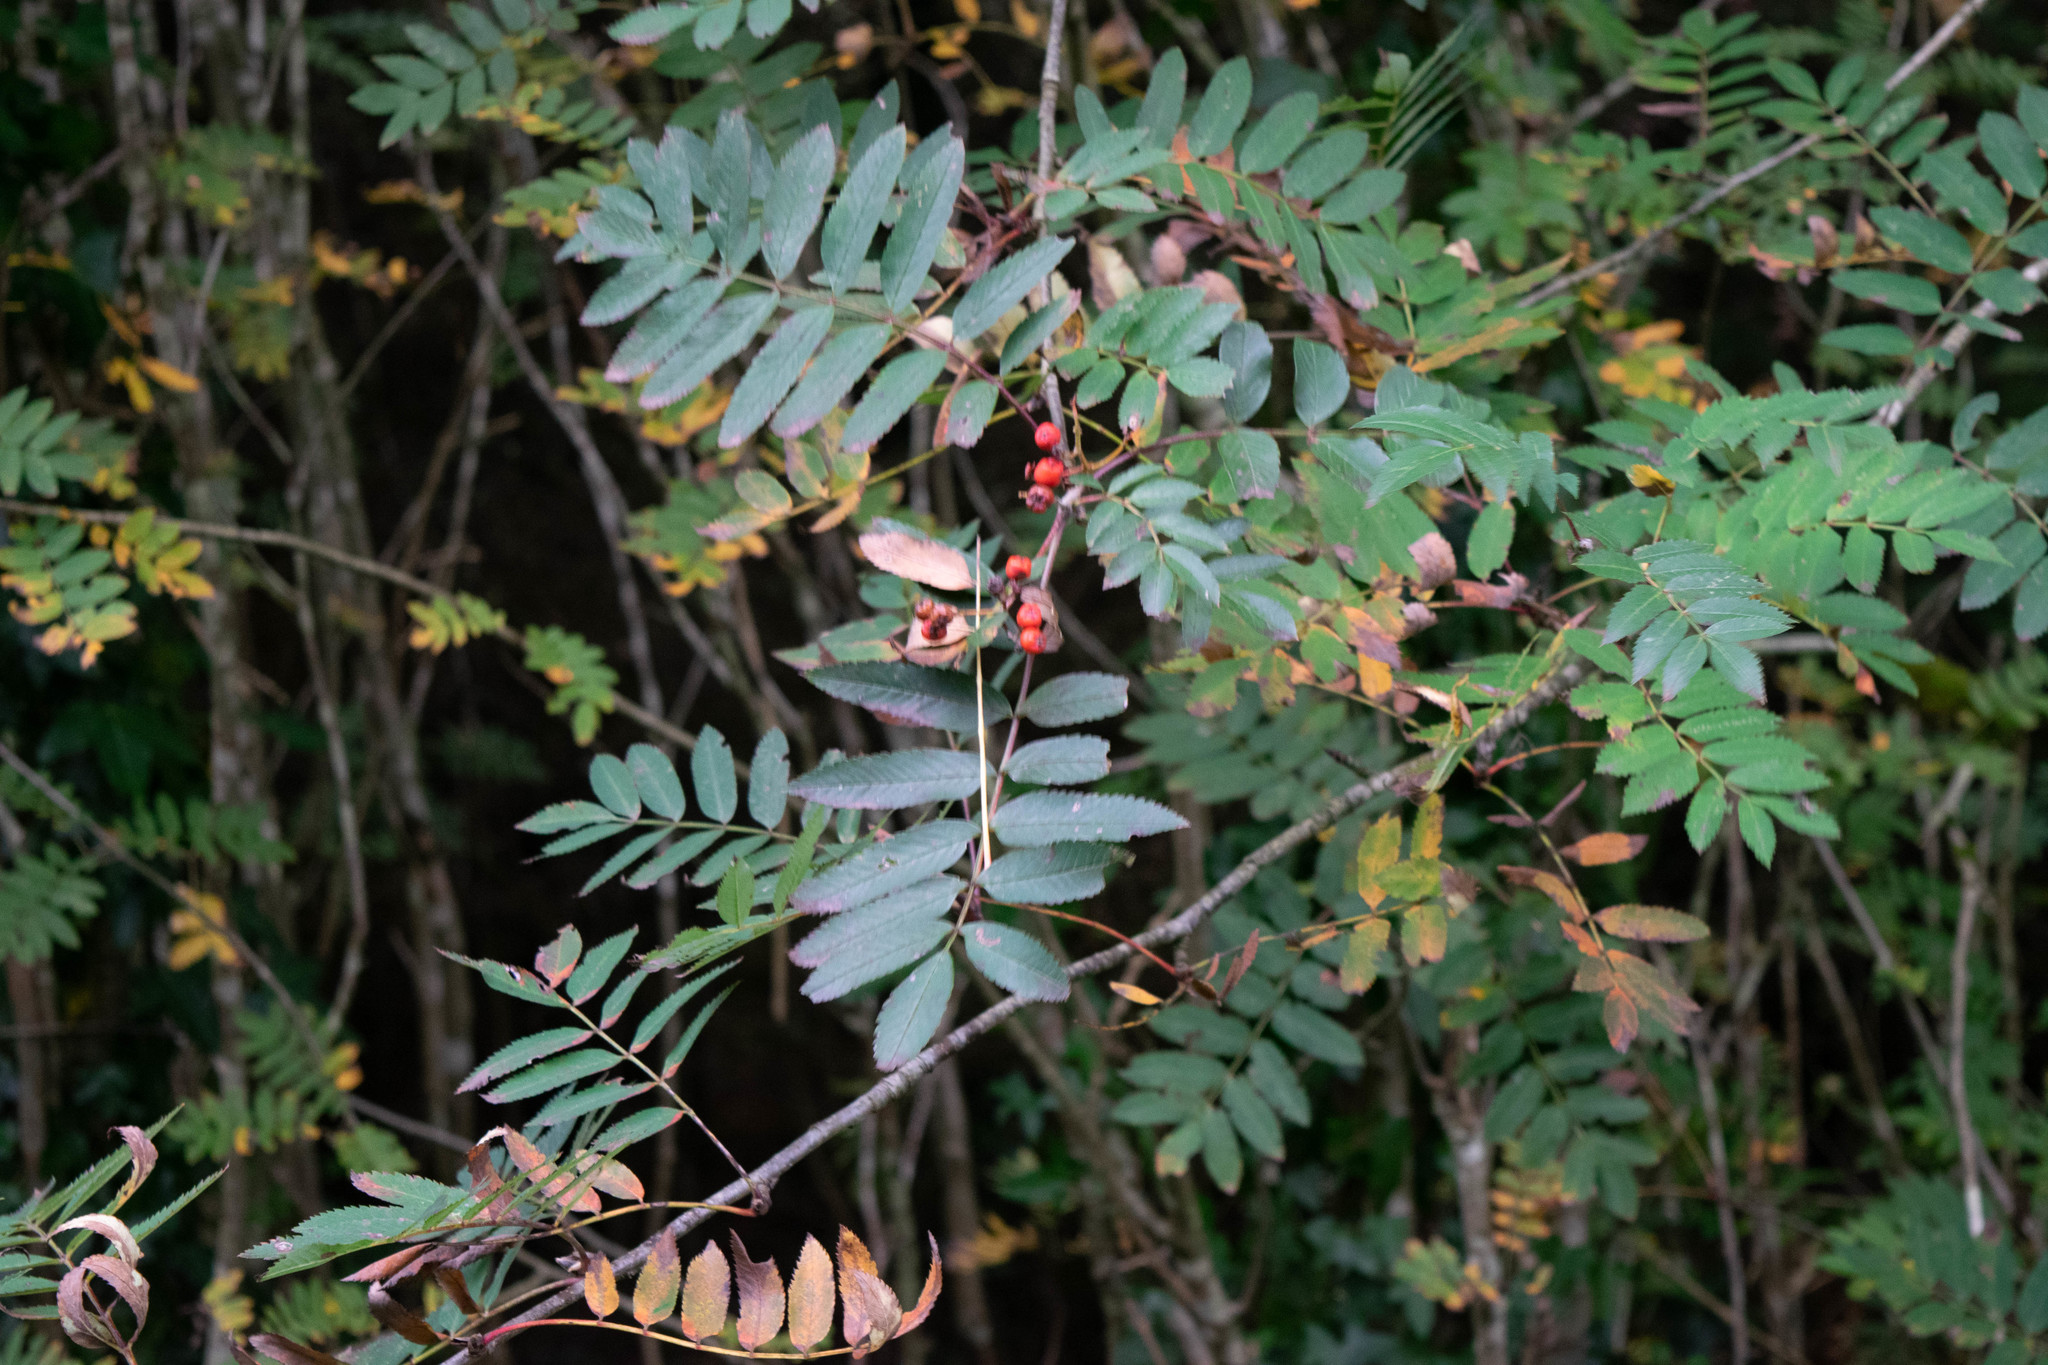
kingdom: Plantae
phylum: Tracheophyta
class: Magnoliopsida
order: Rosales
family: Rosaceae
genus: Sorbus
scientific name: Sorbus aucuparia
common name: Rowan
